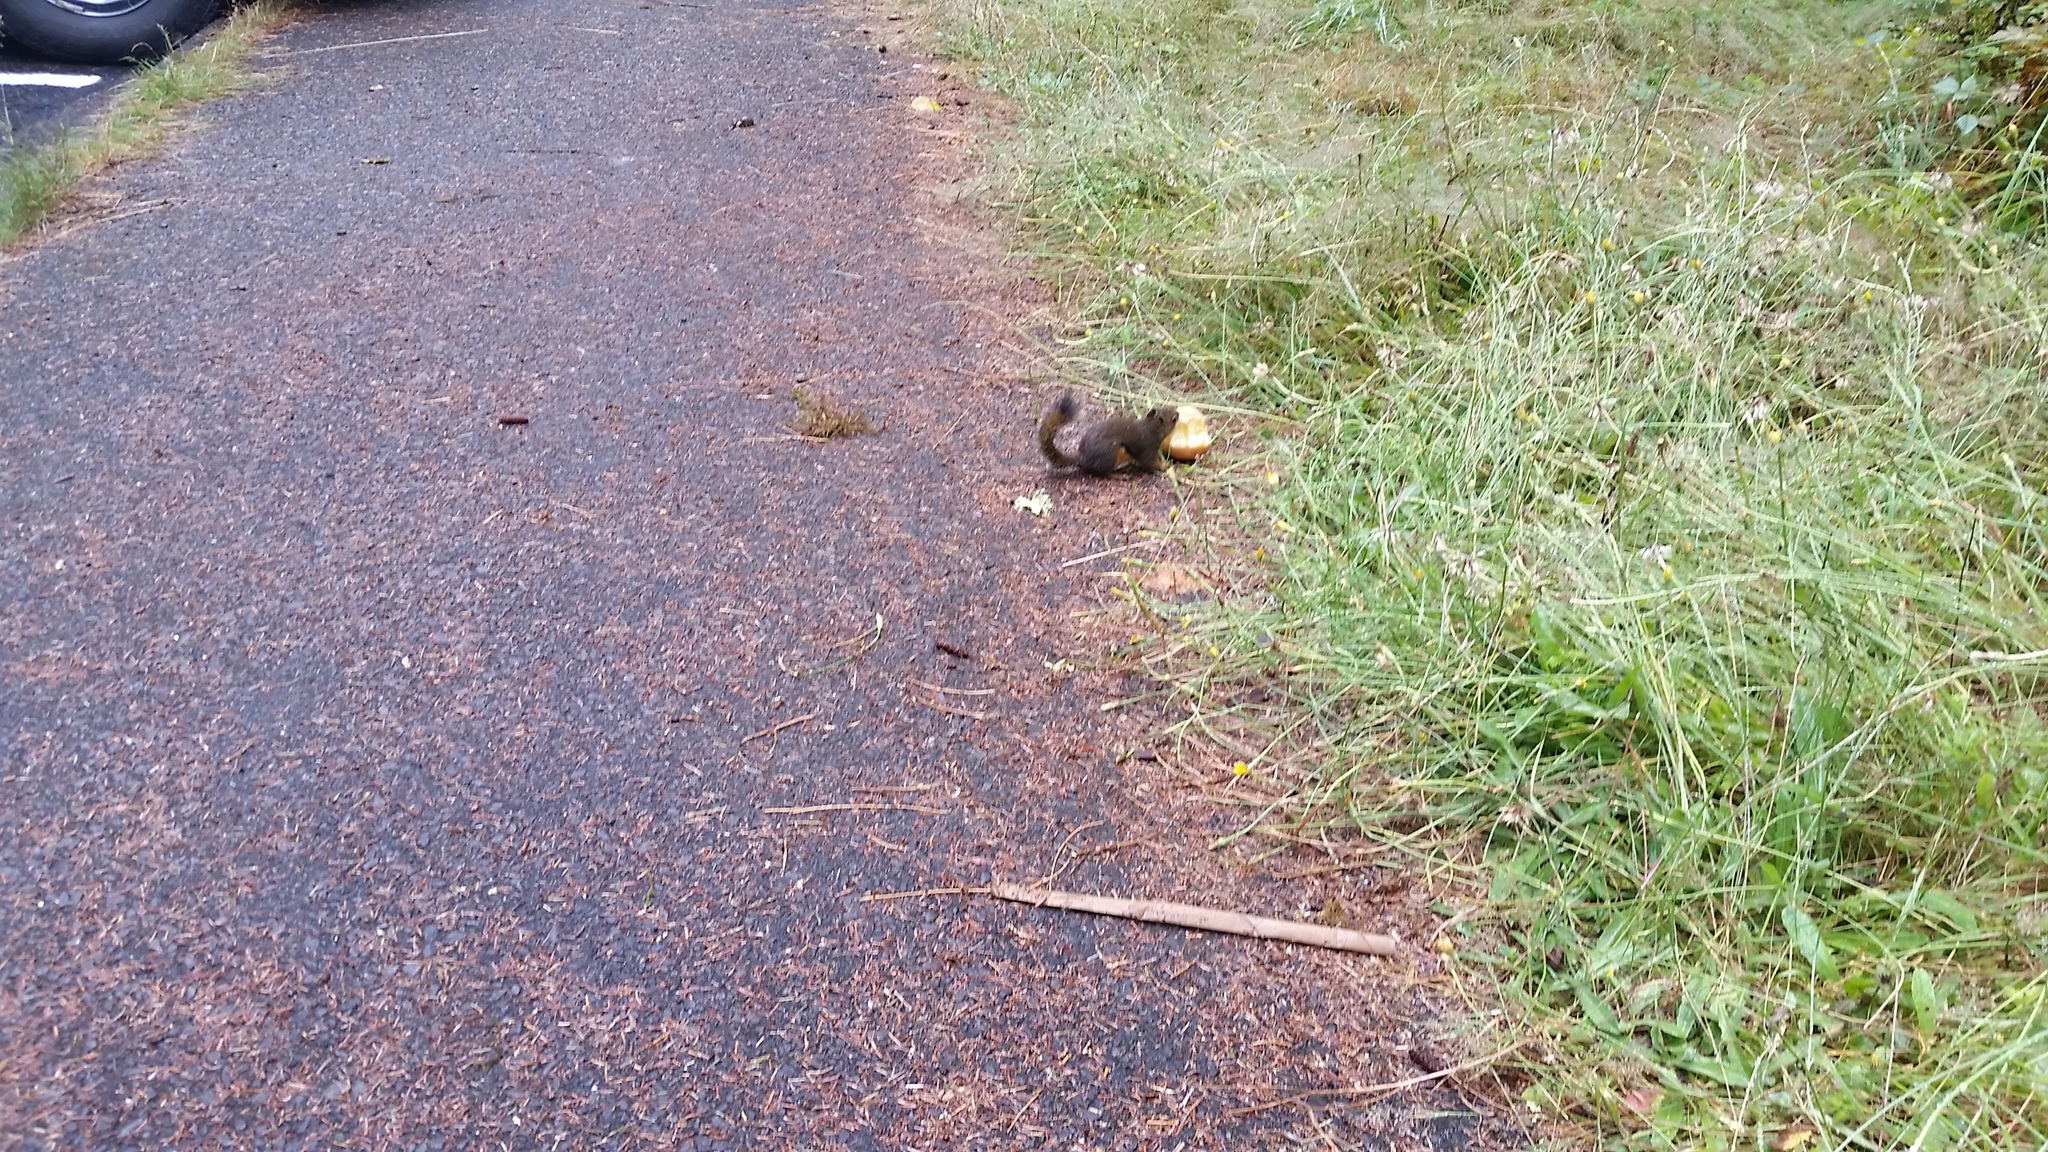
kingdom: Animalia
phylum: Chordata
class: Mammalia
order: Rodentia
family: Sciuridae
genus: Tamiasciurus
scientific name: Tamiasciurus douglasii
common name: Douglas's squirrel
